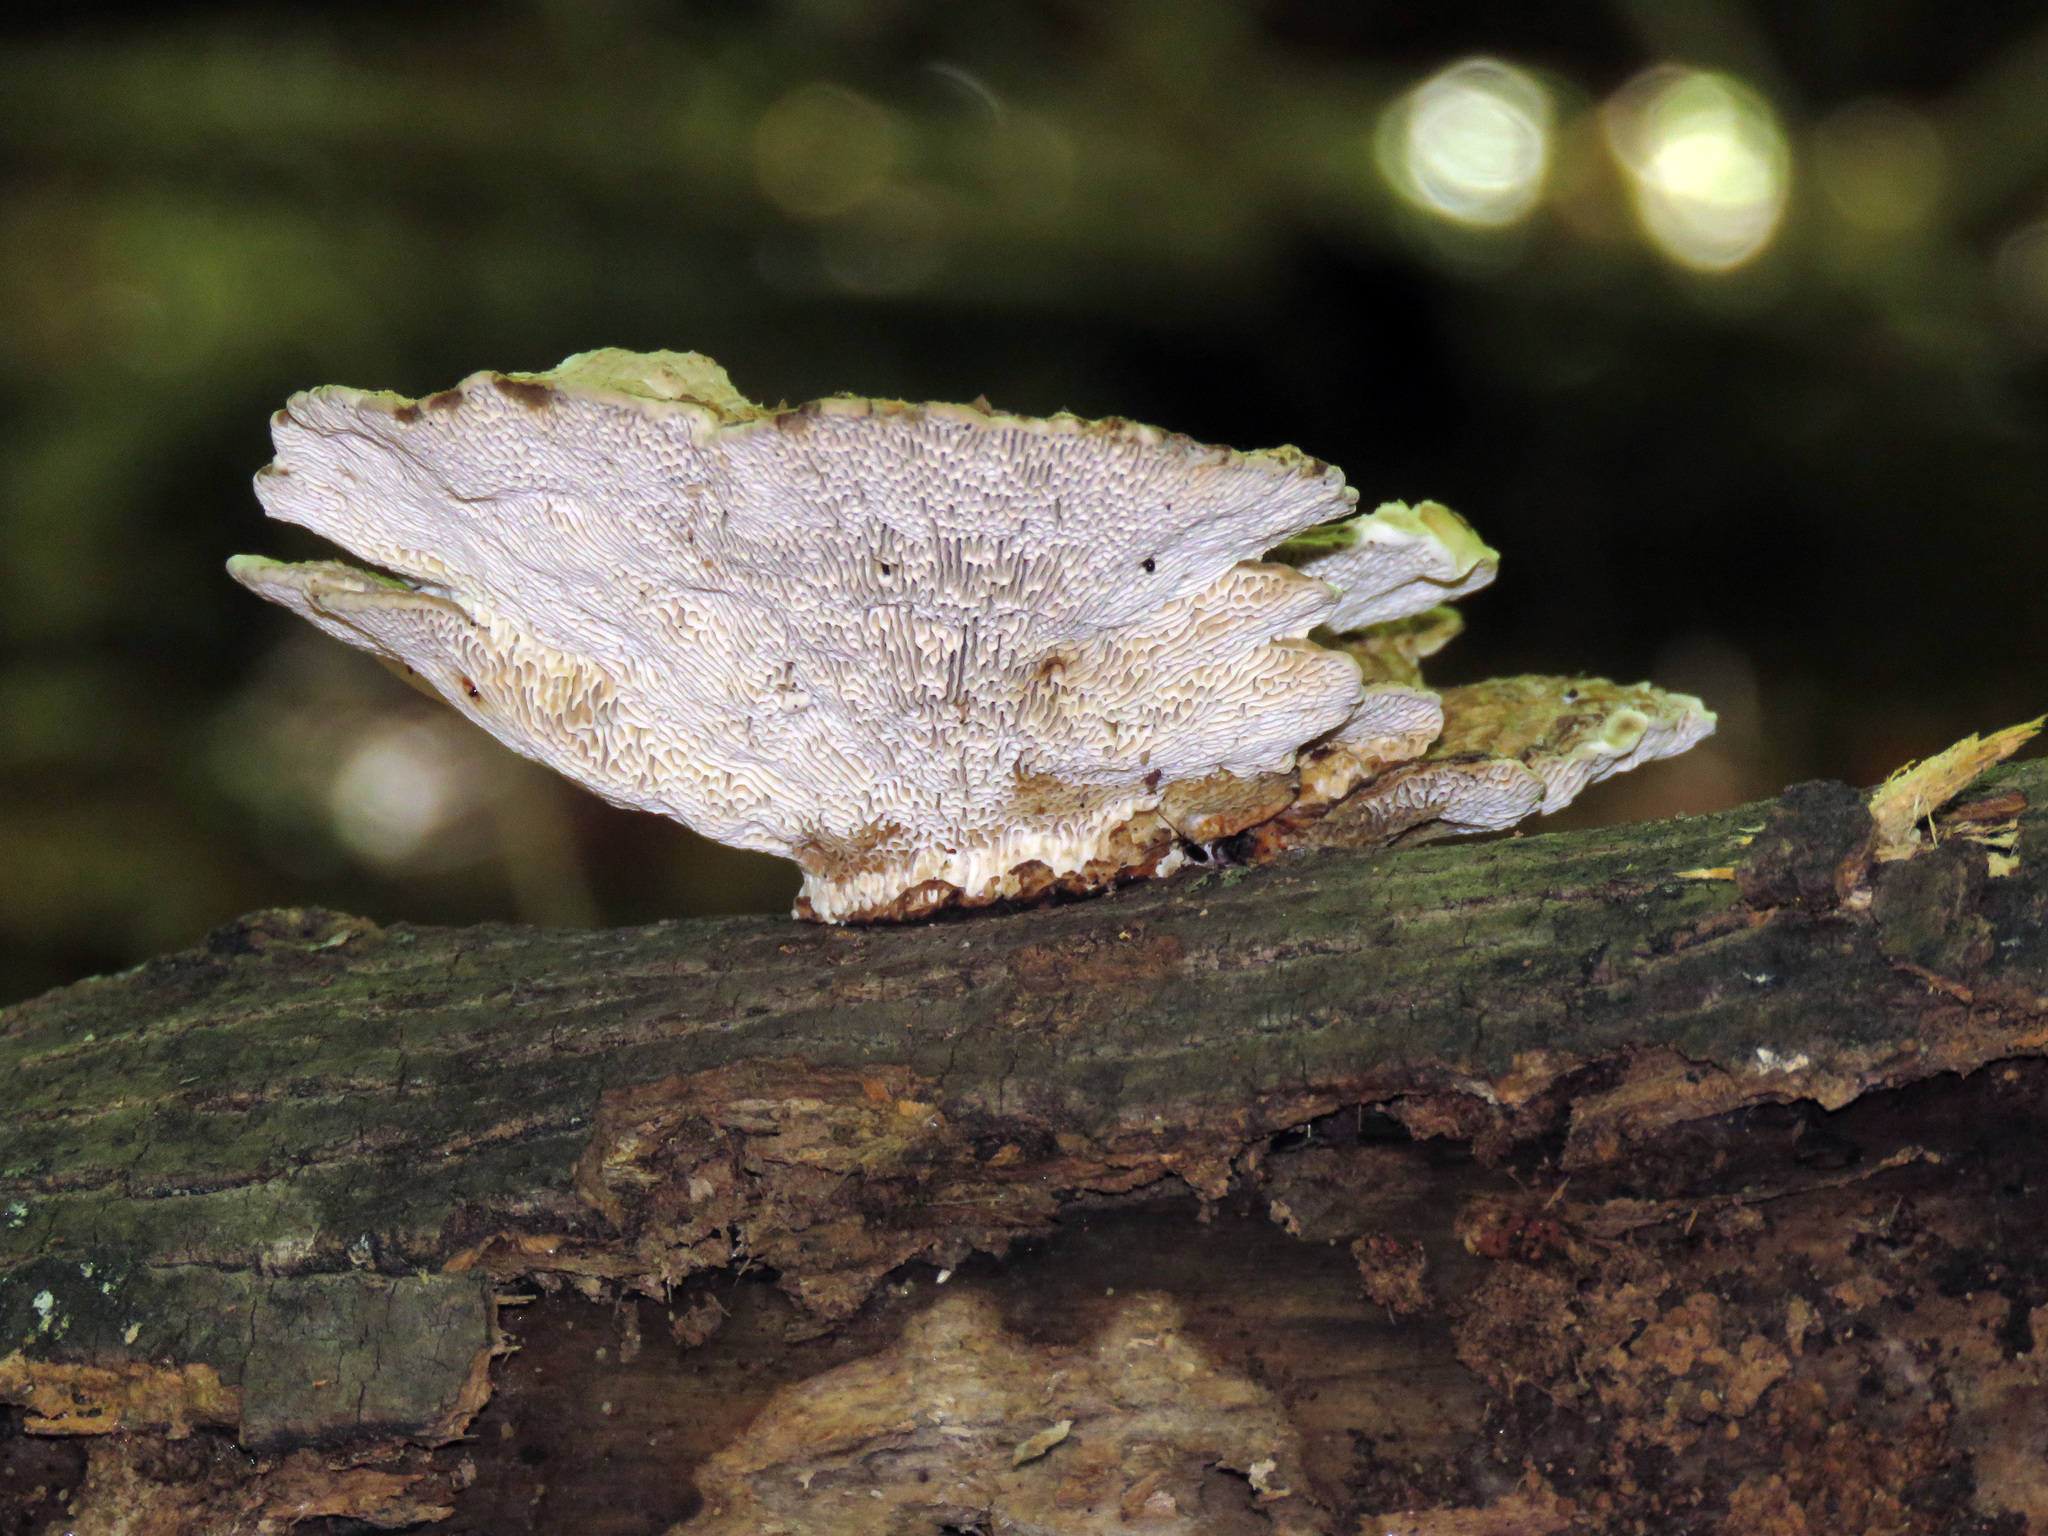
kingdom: Fungi
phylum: Basidiomycota
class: Agaricomycetes
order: Polyporales
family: Polyporaceae
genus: Trametes
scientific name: Trametes versicolor
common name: Turkeytail
